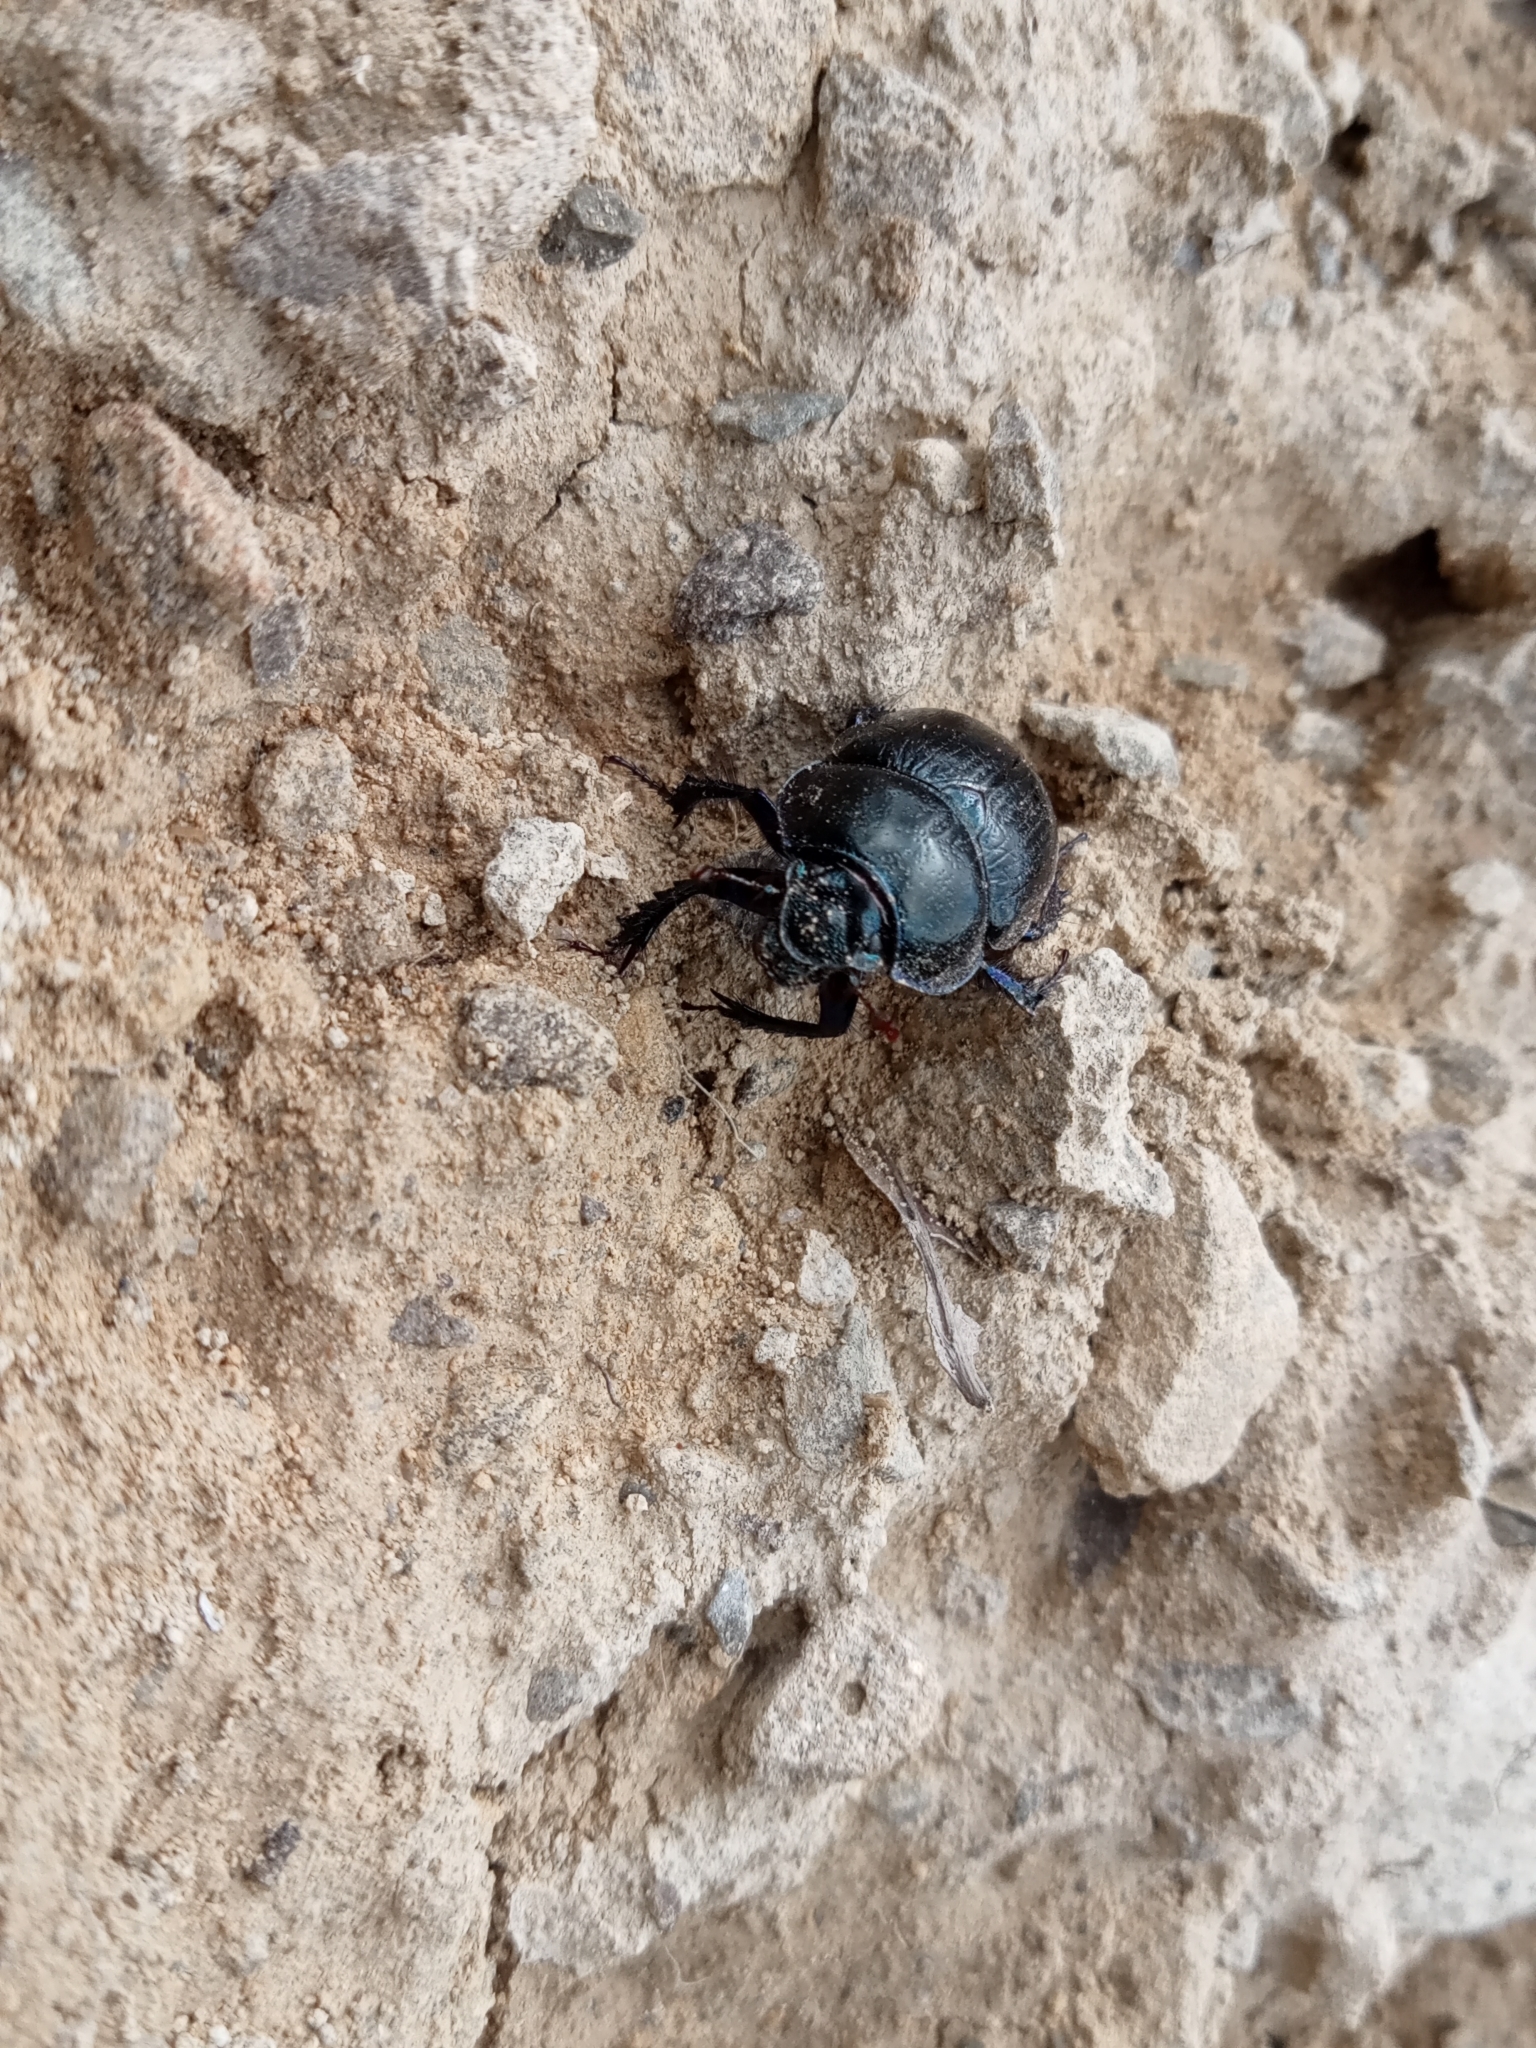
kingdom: Animalia
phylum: Arthropoda
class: Insecta
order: Coleoptera
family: Geotrupidae
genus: Anoplotrupes
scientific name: Anoplotrupes stercorosus
